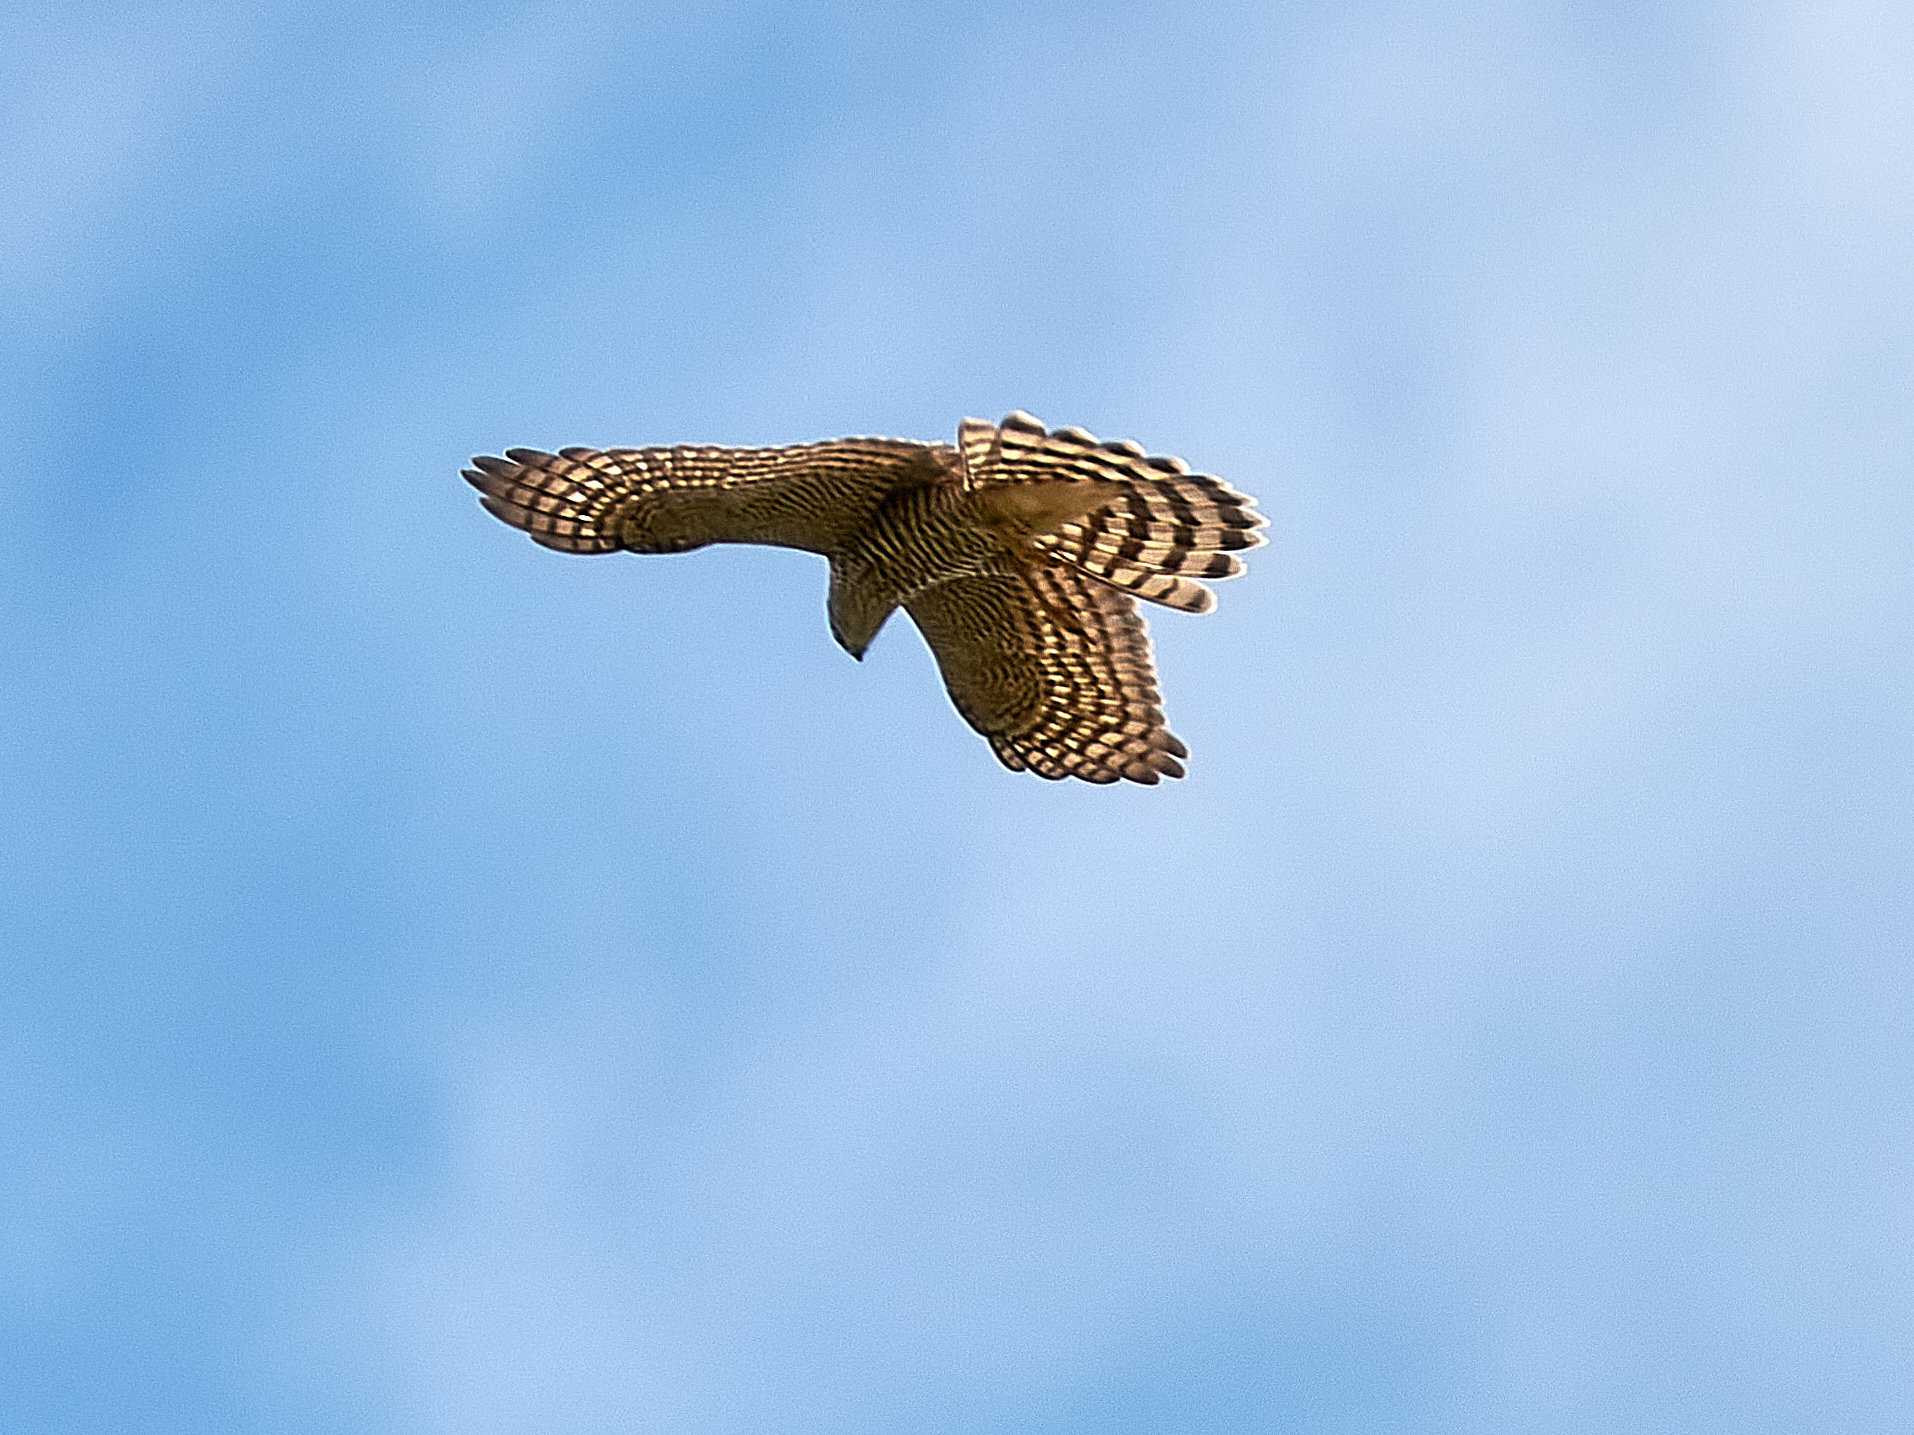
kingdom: Animalia
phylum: Chordata
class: Aves
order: Accipitriformes
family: Accipitridae
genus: Accipiter
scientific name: Accipiter nisus
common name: Eurasian sparrowhawk
